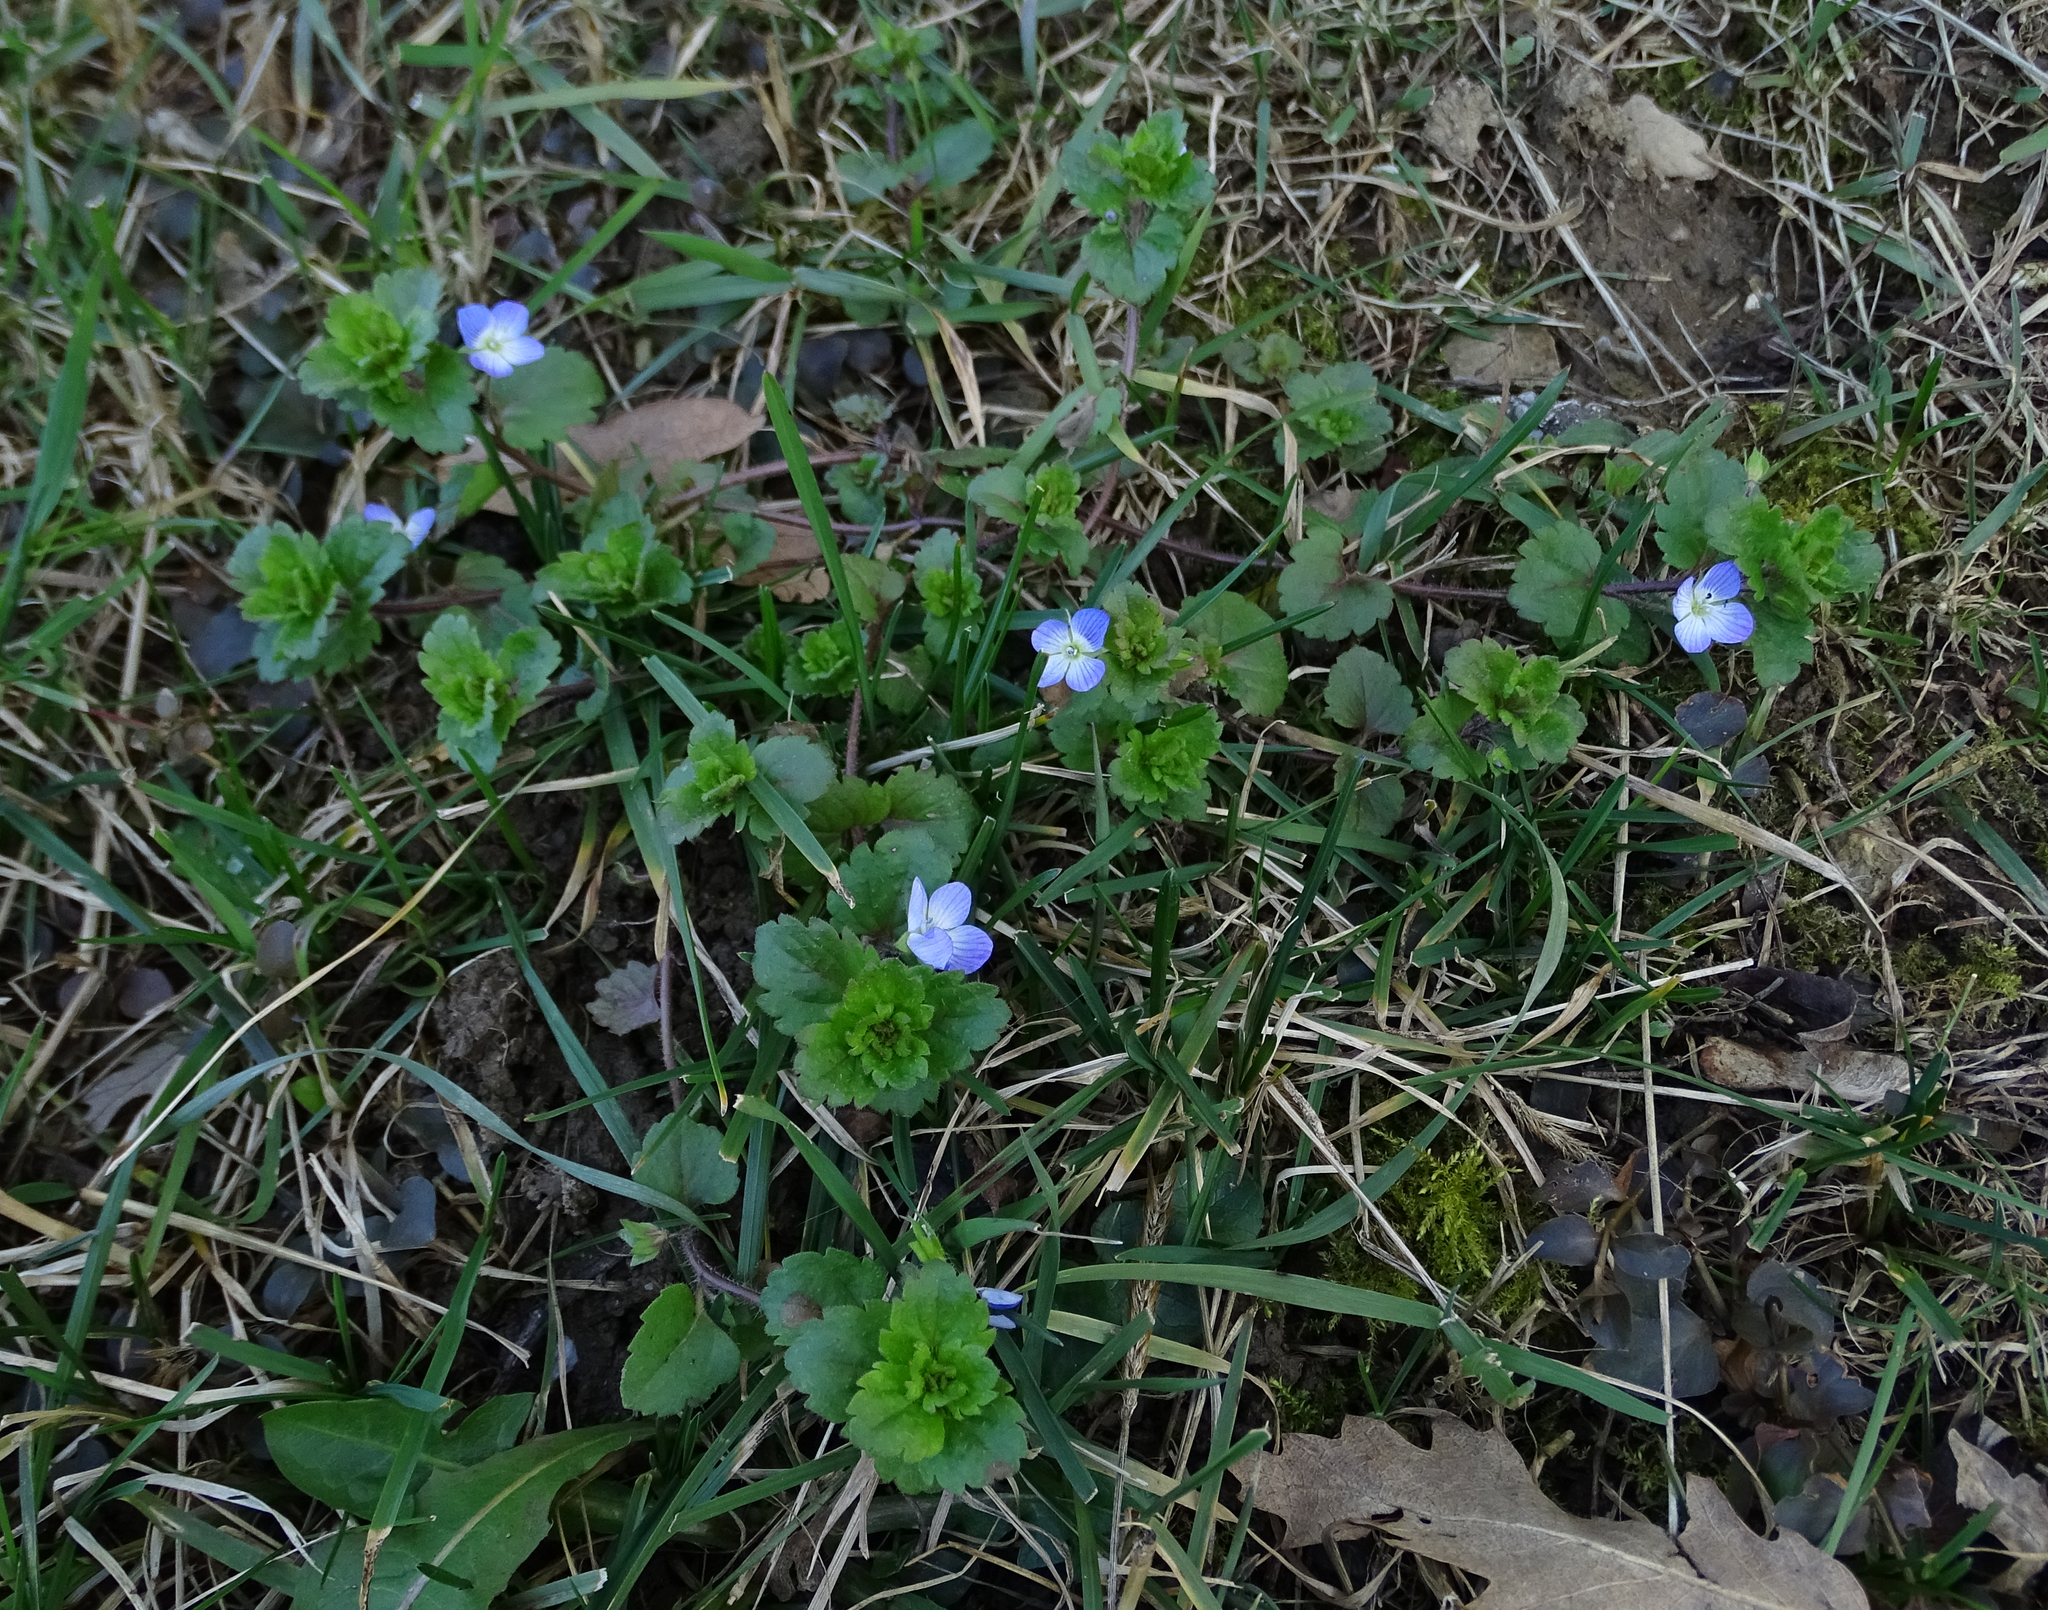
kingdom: Plantae
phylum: Tracheophyta
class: Magnoliopsida
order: Lamiales
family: Plantaginaceae
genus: Veronica
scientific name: Veronica persica
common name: Common field-speedwell
